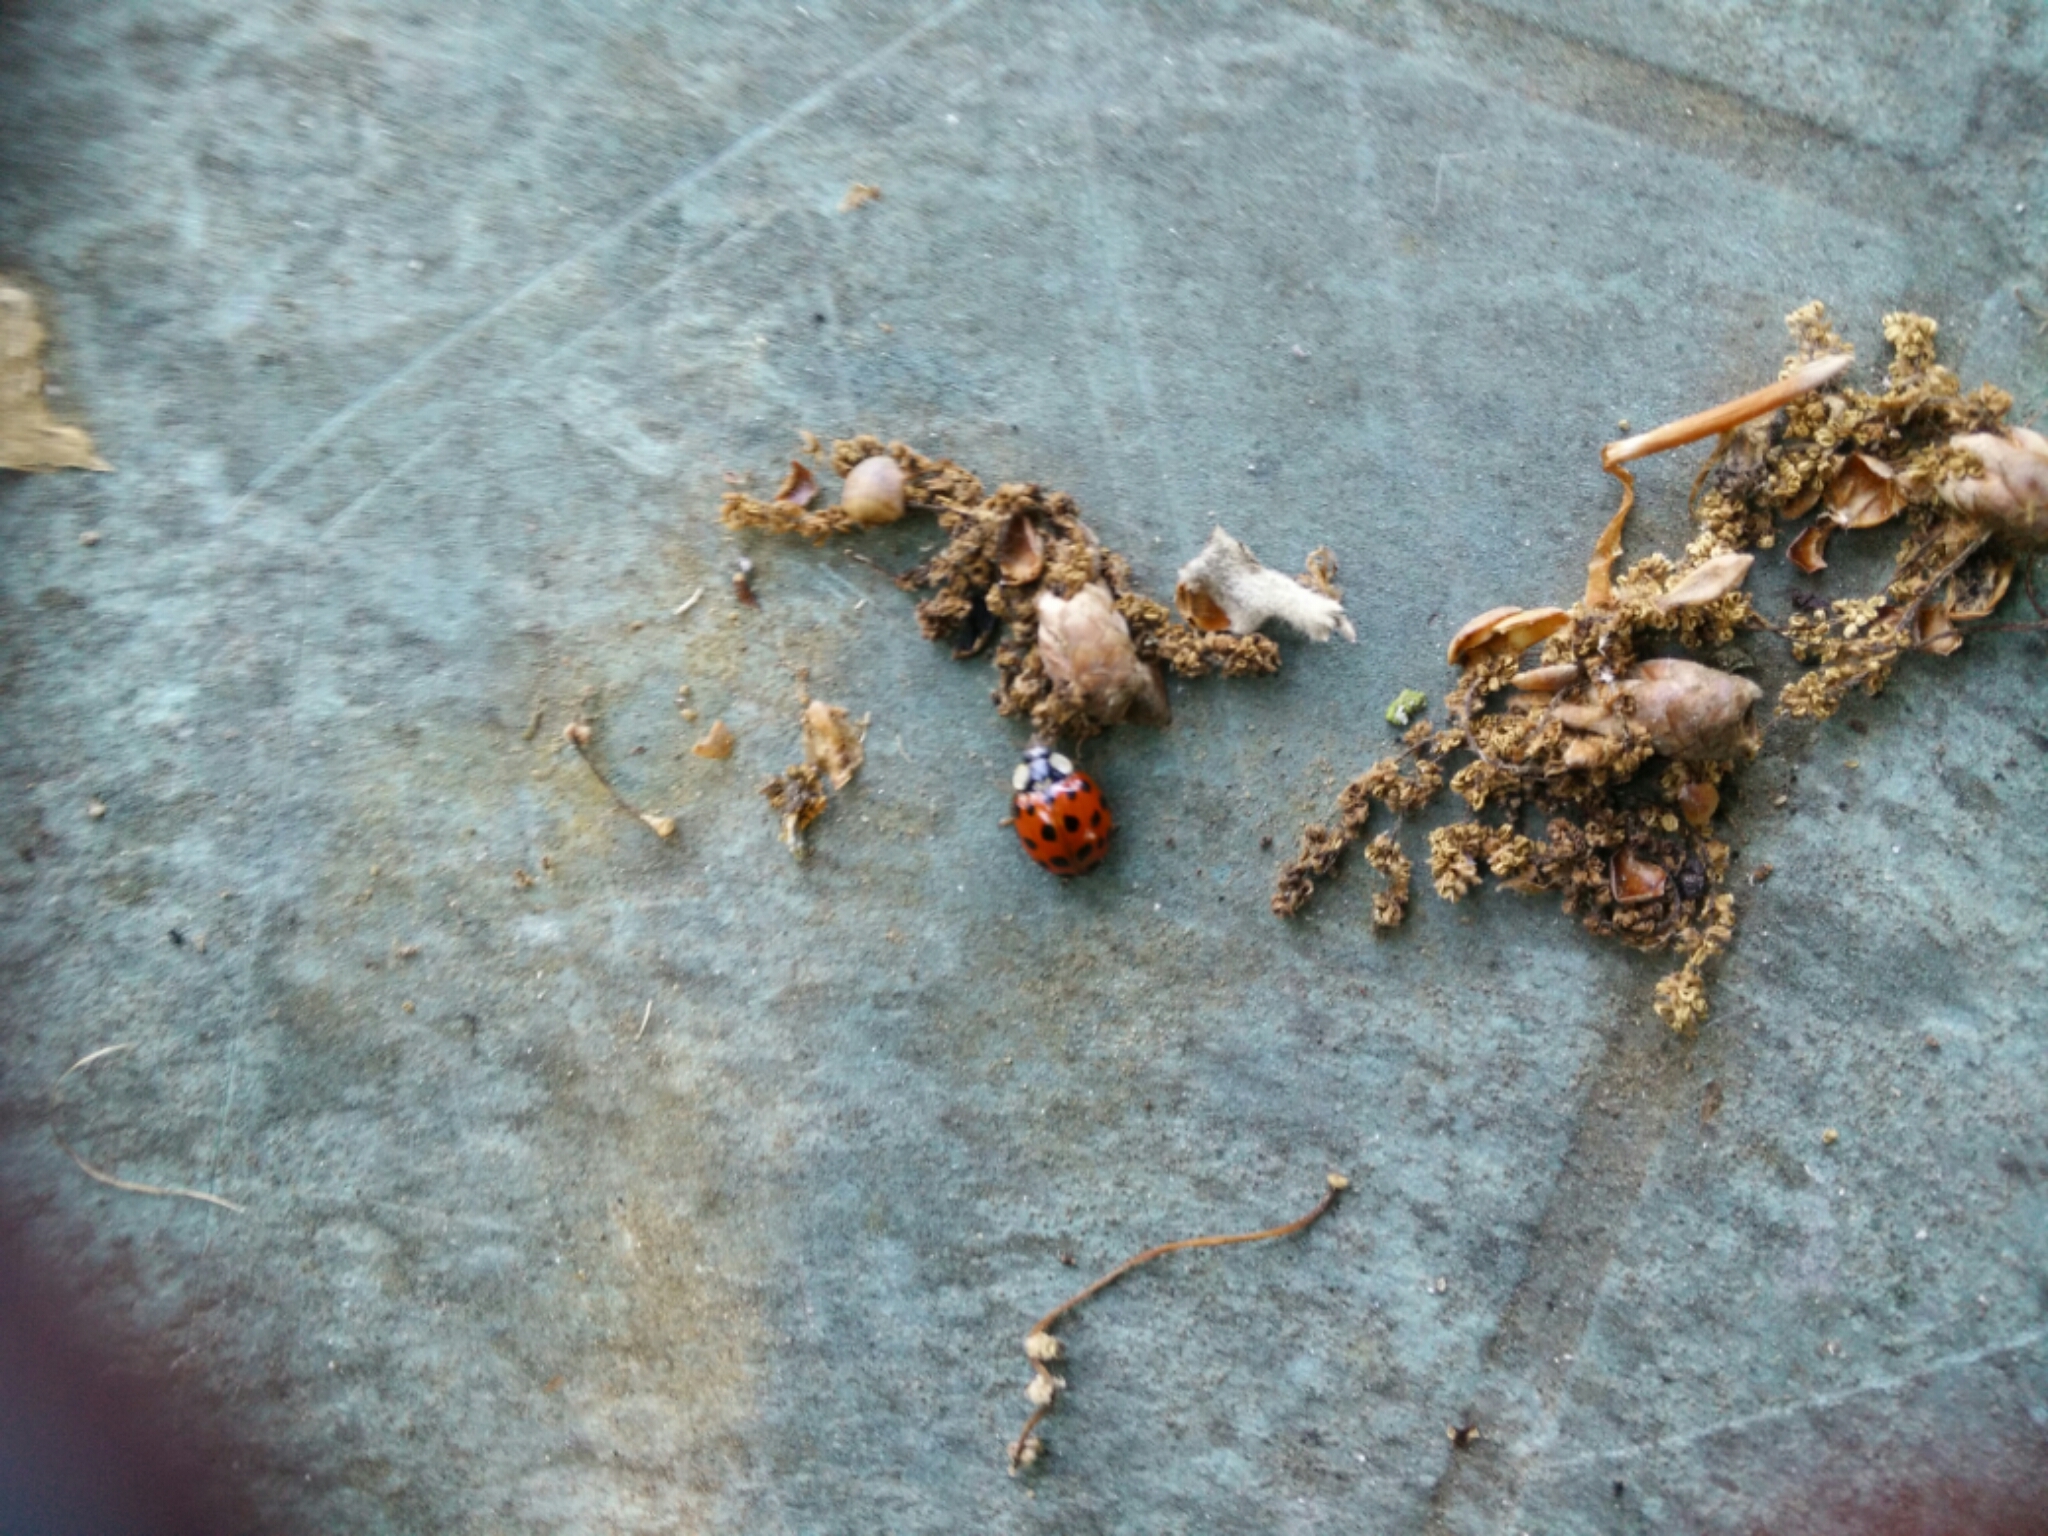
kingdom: Animalia
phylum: Arthropoda
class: Insecta
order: Coleoptera
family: Coccinellidae
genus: Harmonia
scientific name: Harmonia axyridis
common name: Harlequin ladybird
